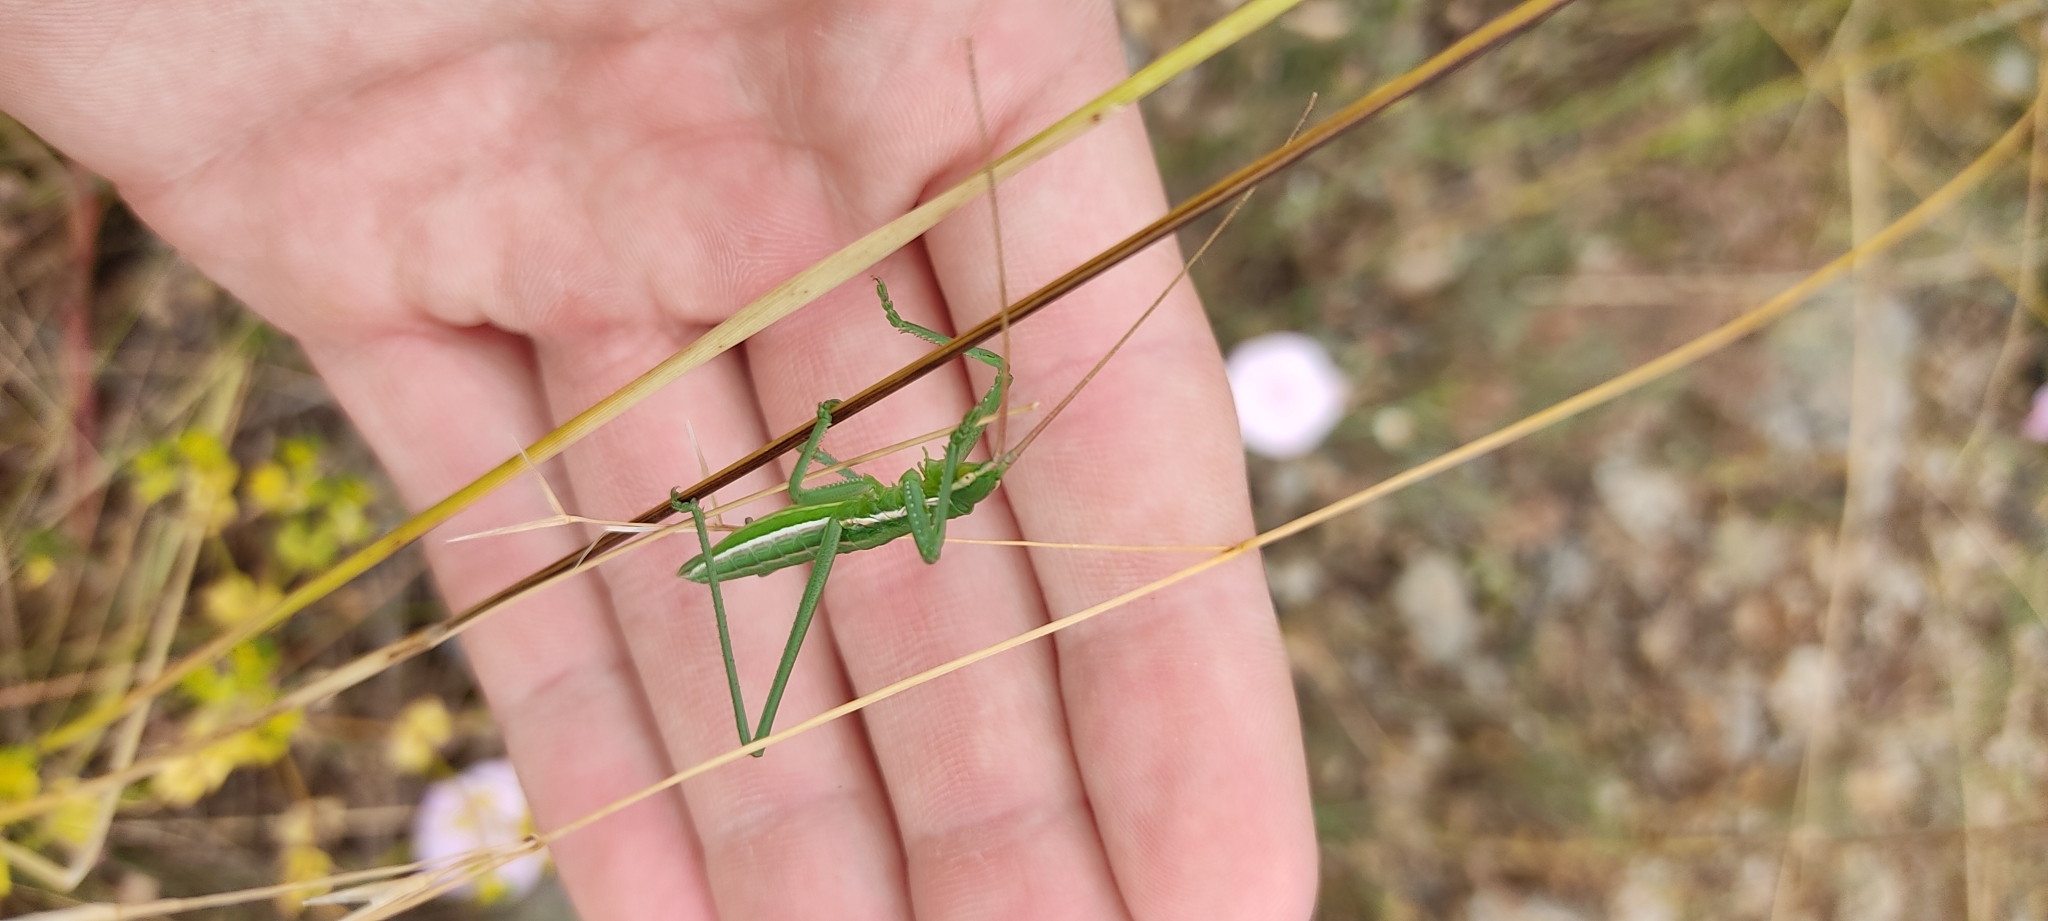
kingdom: Animalia
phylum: Arthropoda
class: Insecta
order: Orthoptera
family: Tettigoniidae
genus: Saga
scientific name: Saga pedo
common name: Common predatory bush-cricket
